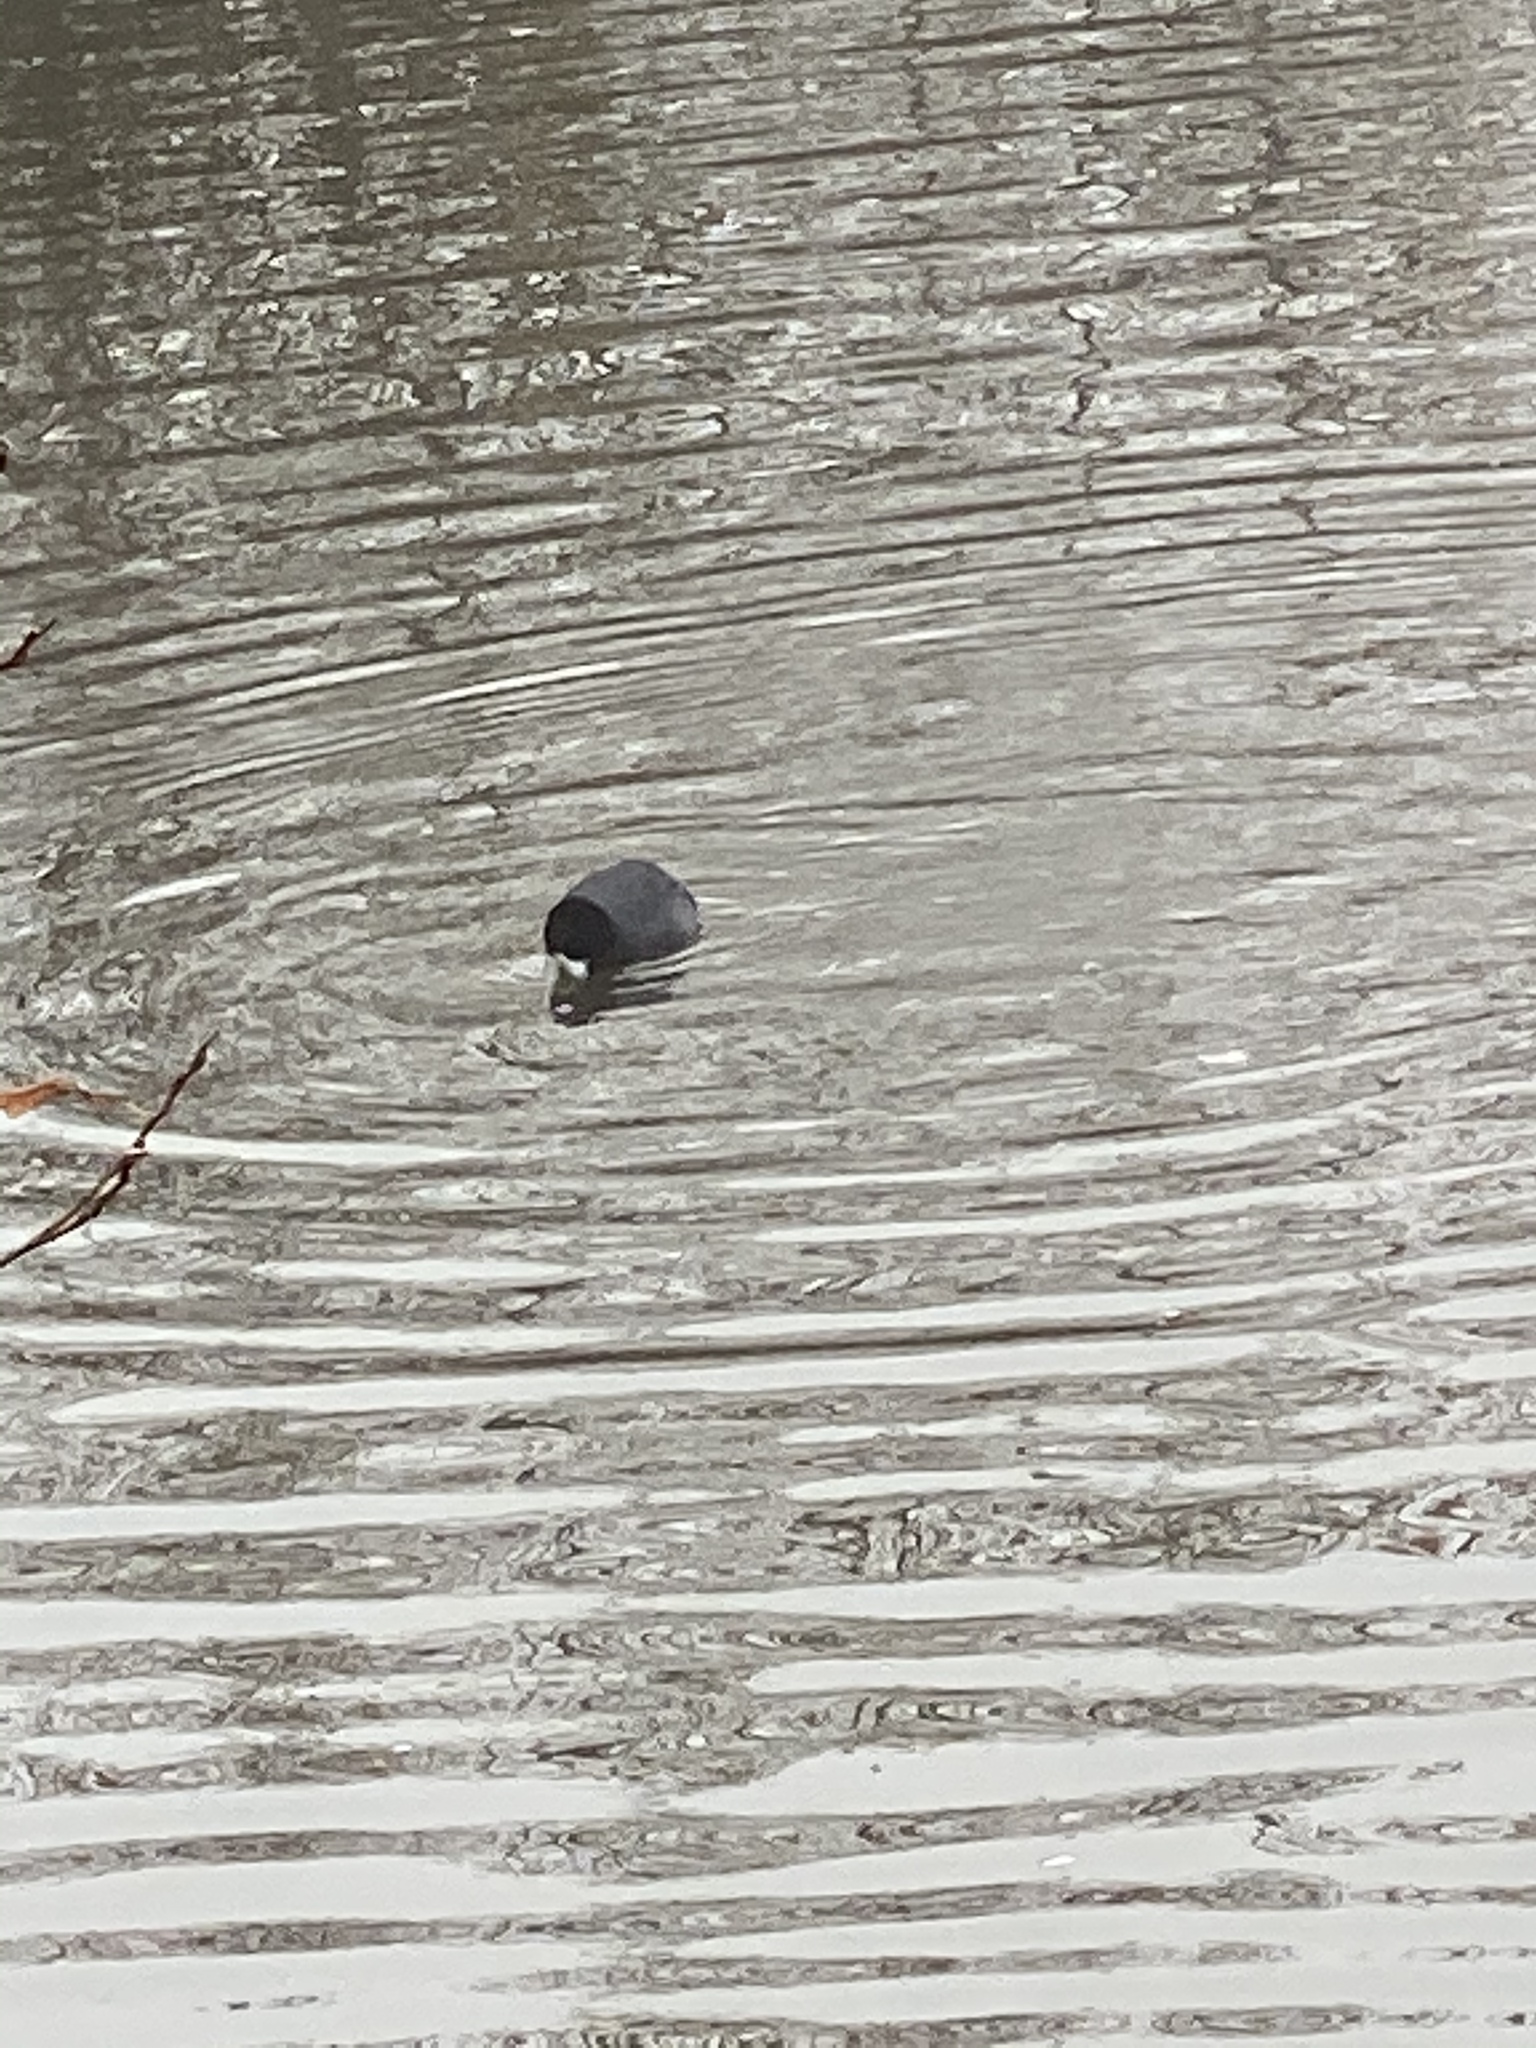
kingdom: Animalia
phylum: Chordata
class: Aves
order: Gruiformes
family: Rallidae
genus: Fulica
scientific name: Fulica americana
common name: American coot
